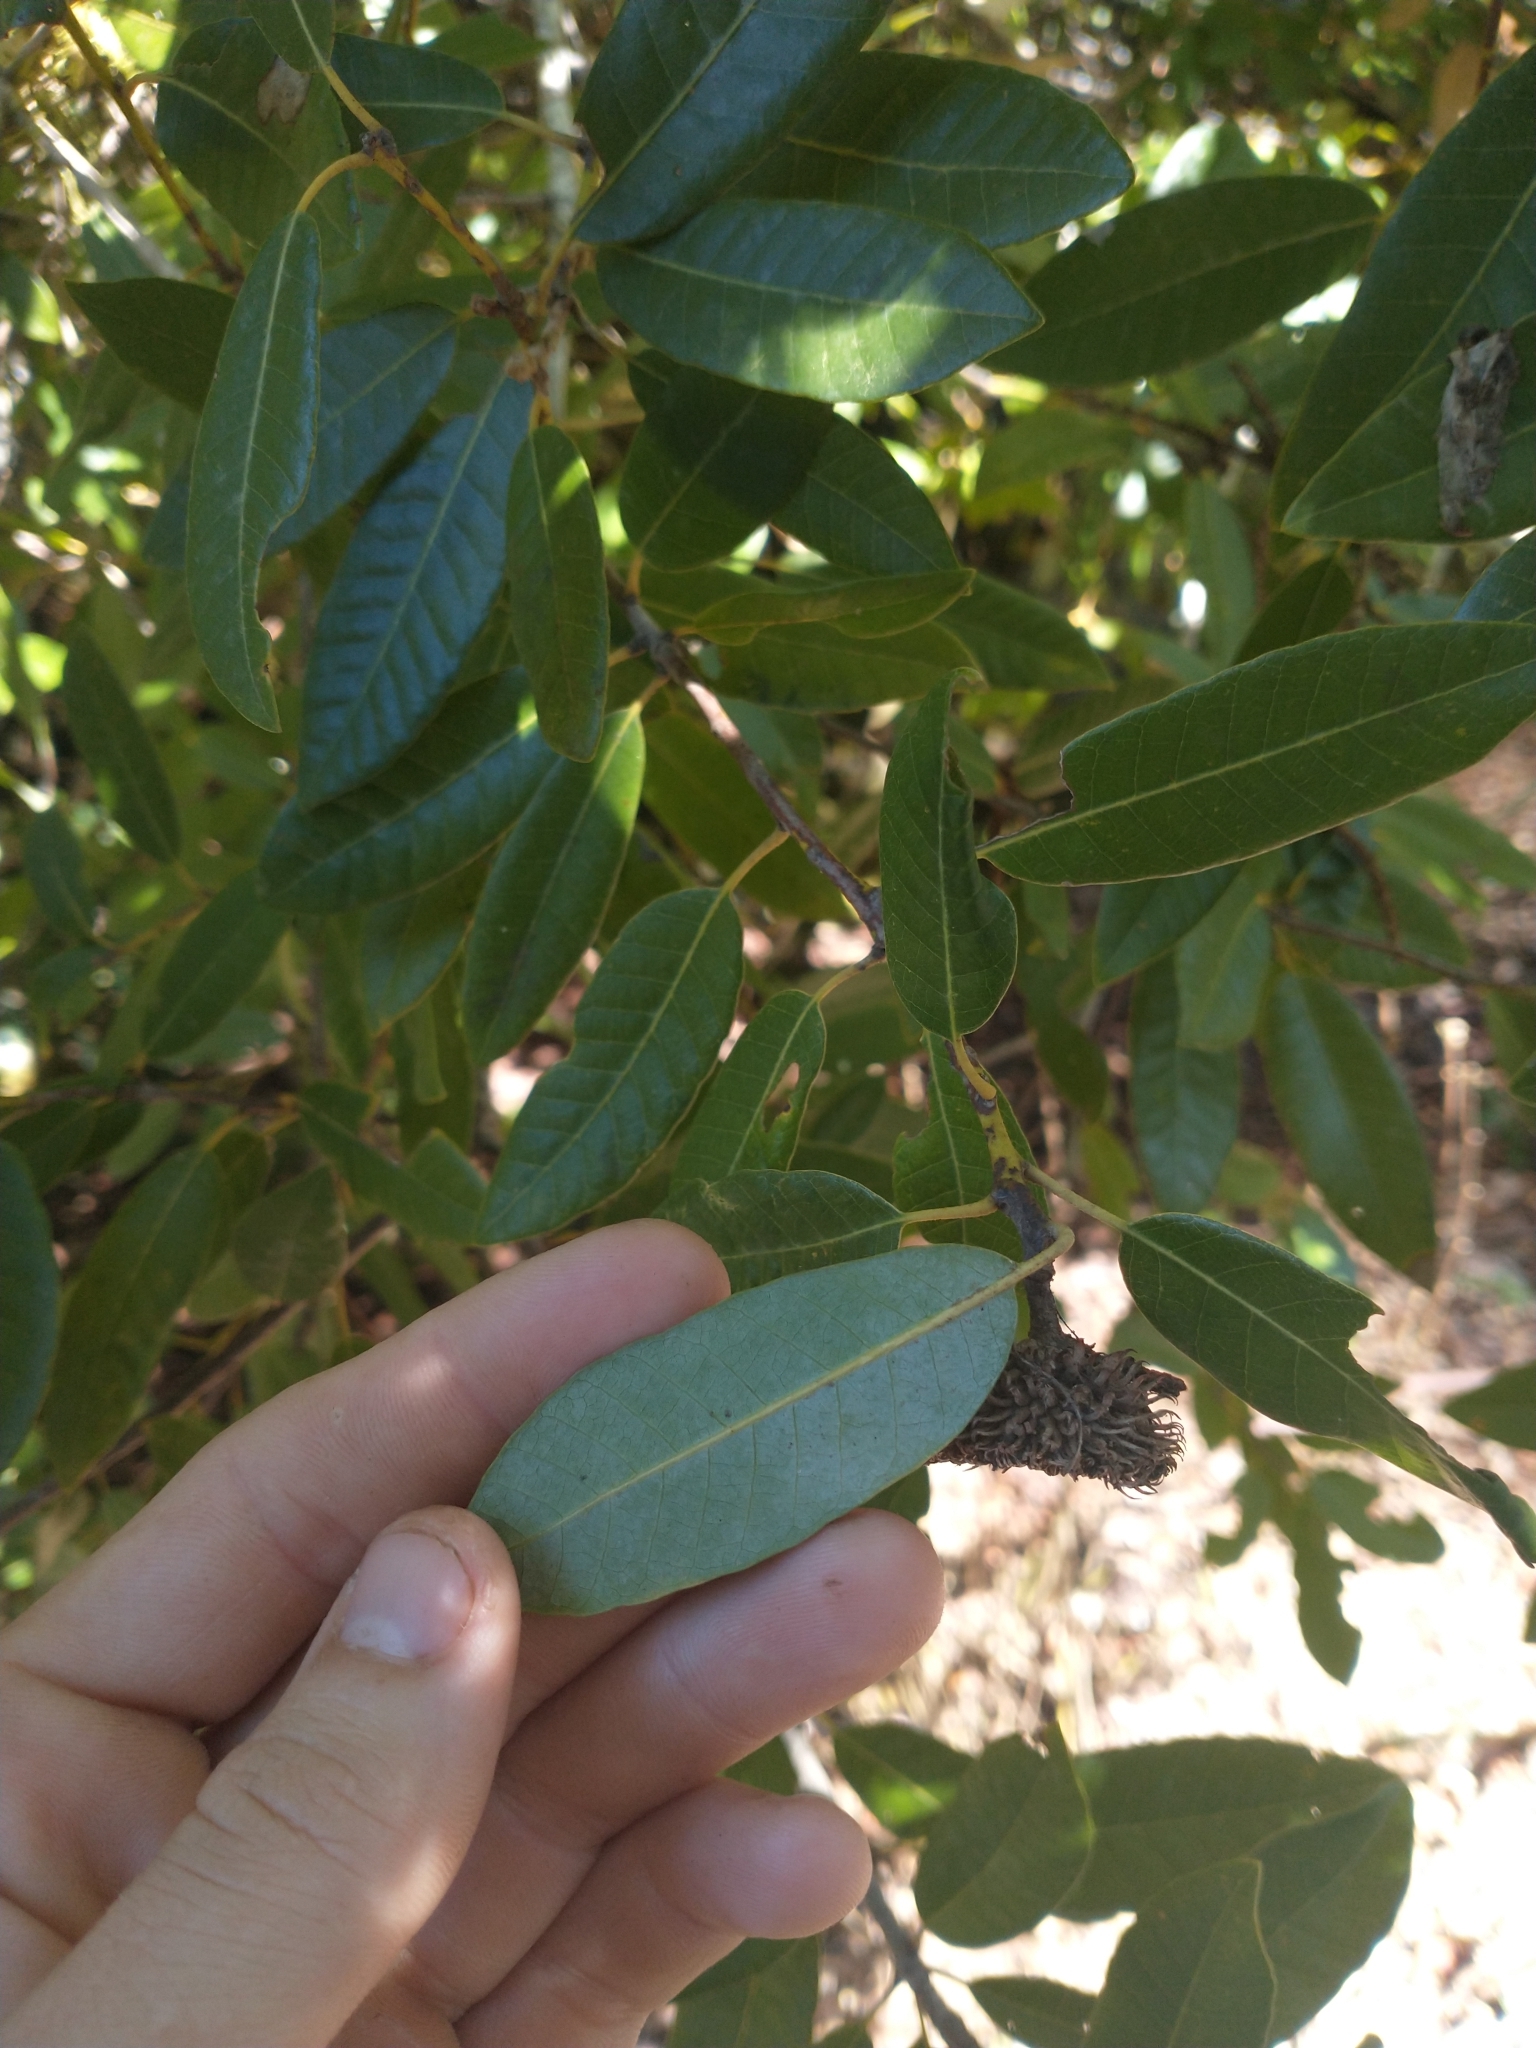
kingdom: Plantae
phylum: Tracheophyta
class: Magnoliopsida
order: Fagales
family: Fagaceae
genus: Notholithocarpus
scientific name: Notholithocarpus densiflorus
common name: Tan bark oak
